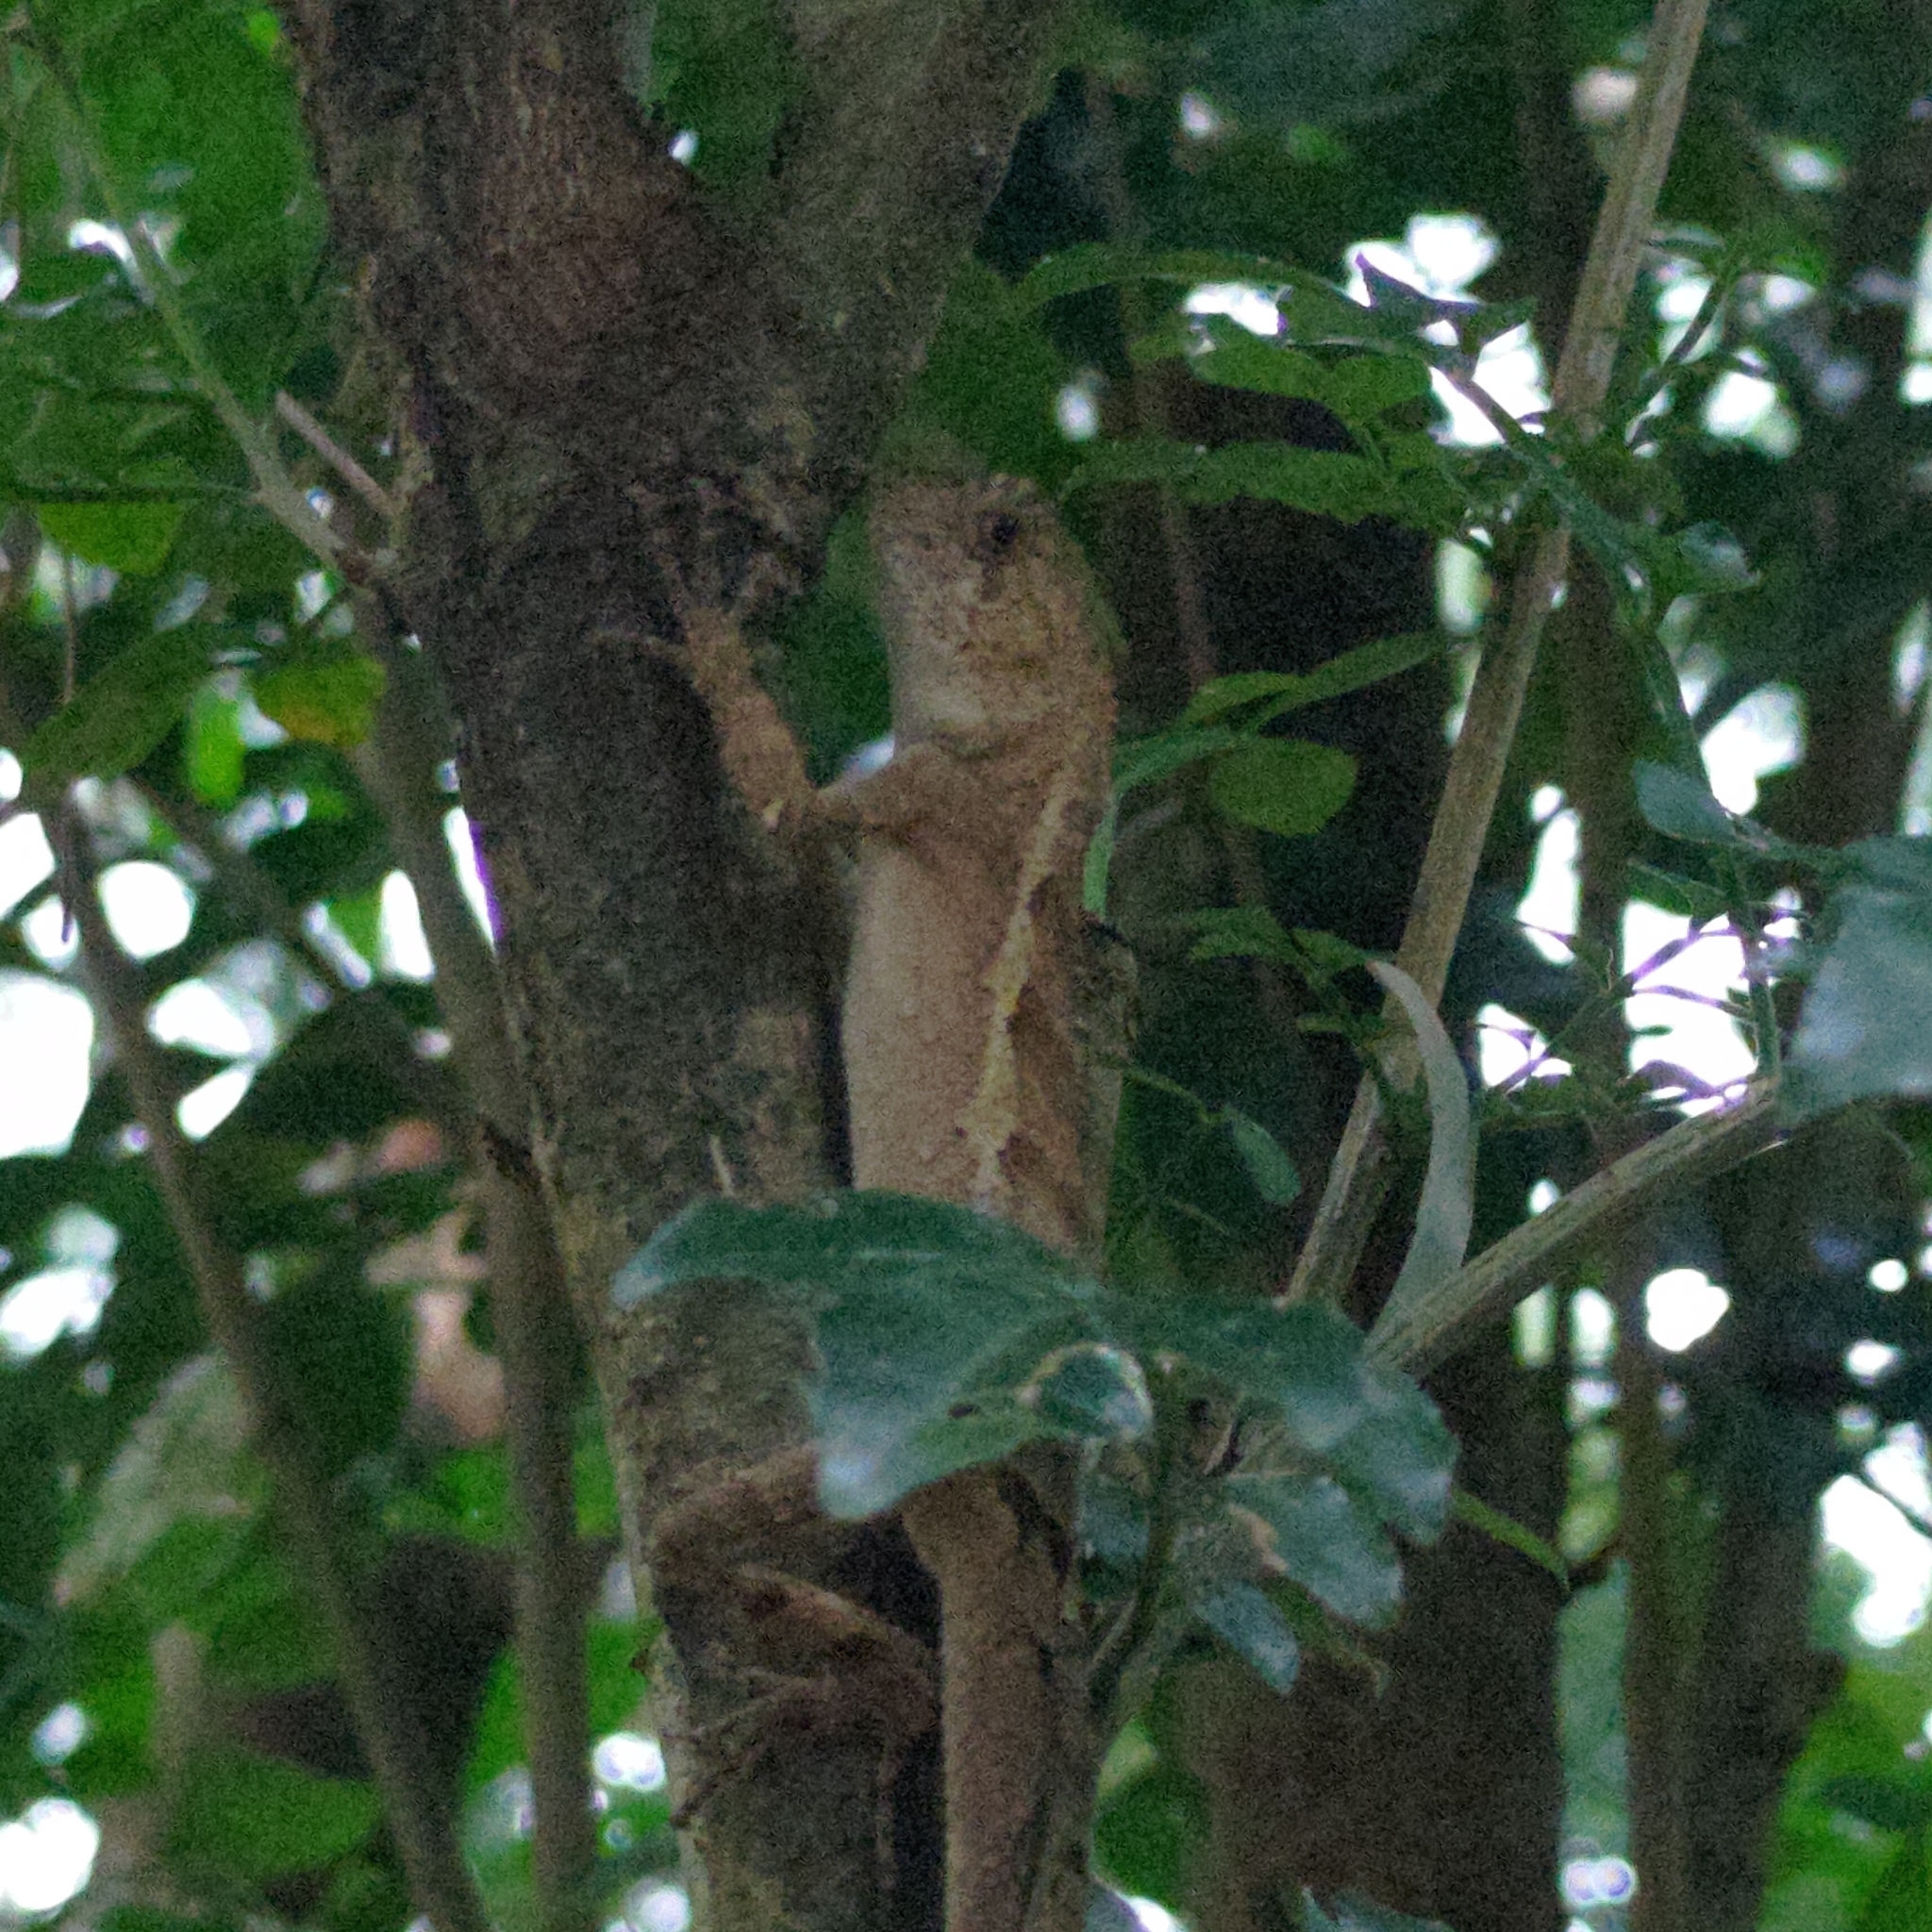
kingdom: Animalia
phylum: Chordata
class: Squamata
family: Agamidae
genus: Diploderma
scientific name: Diploderma swinhonis
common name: Taiwan japalure
